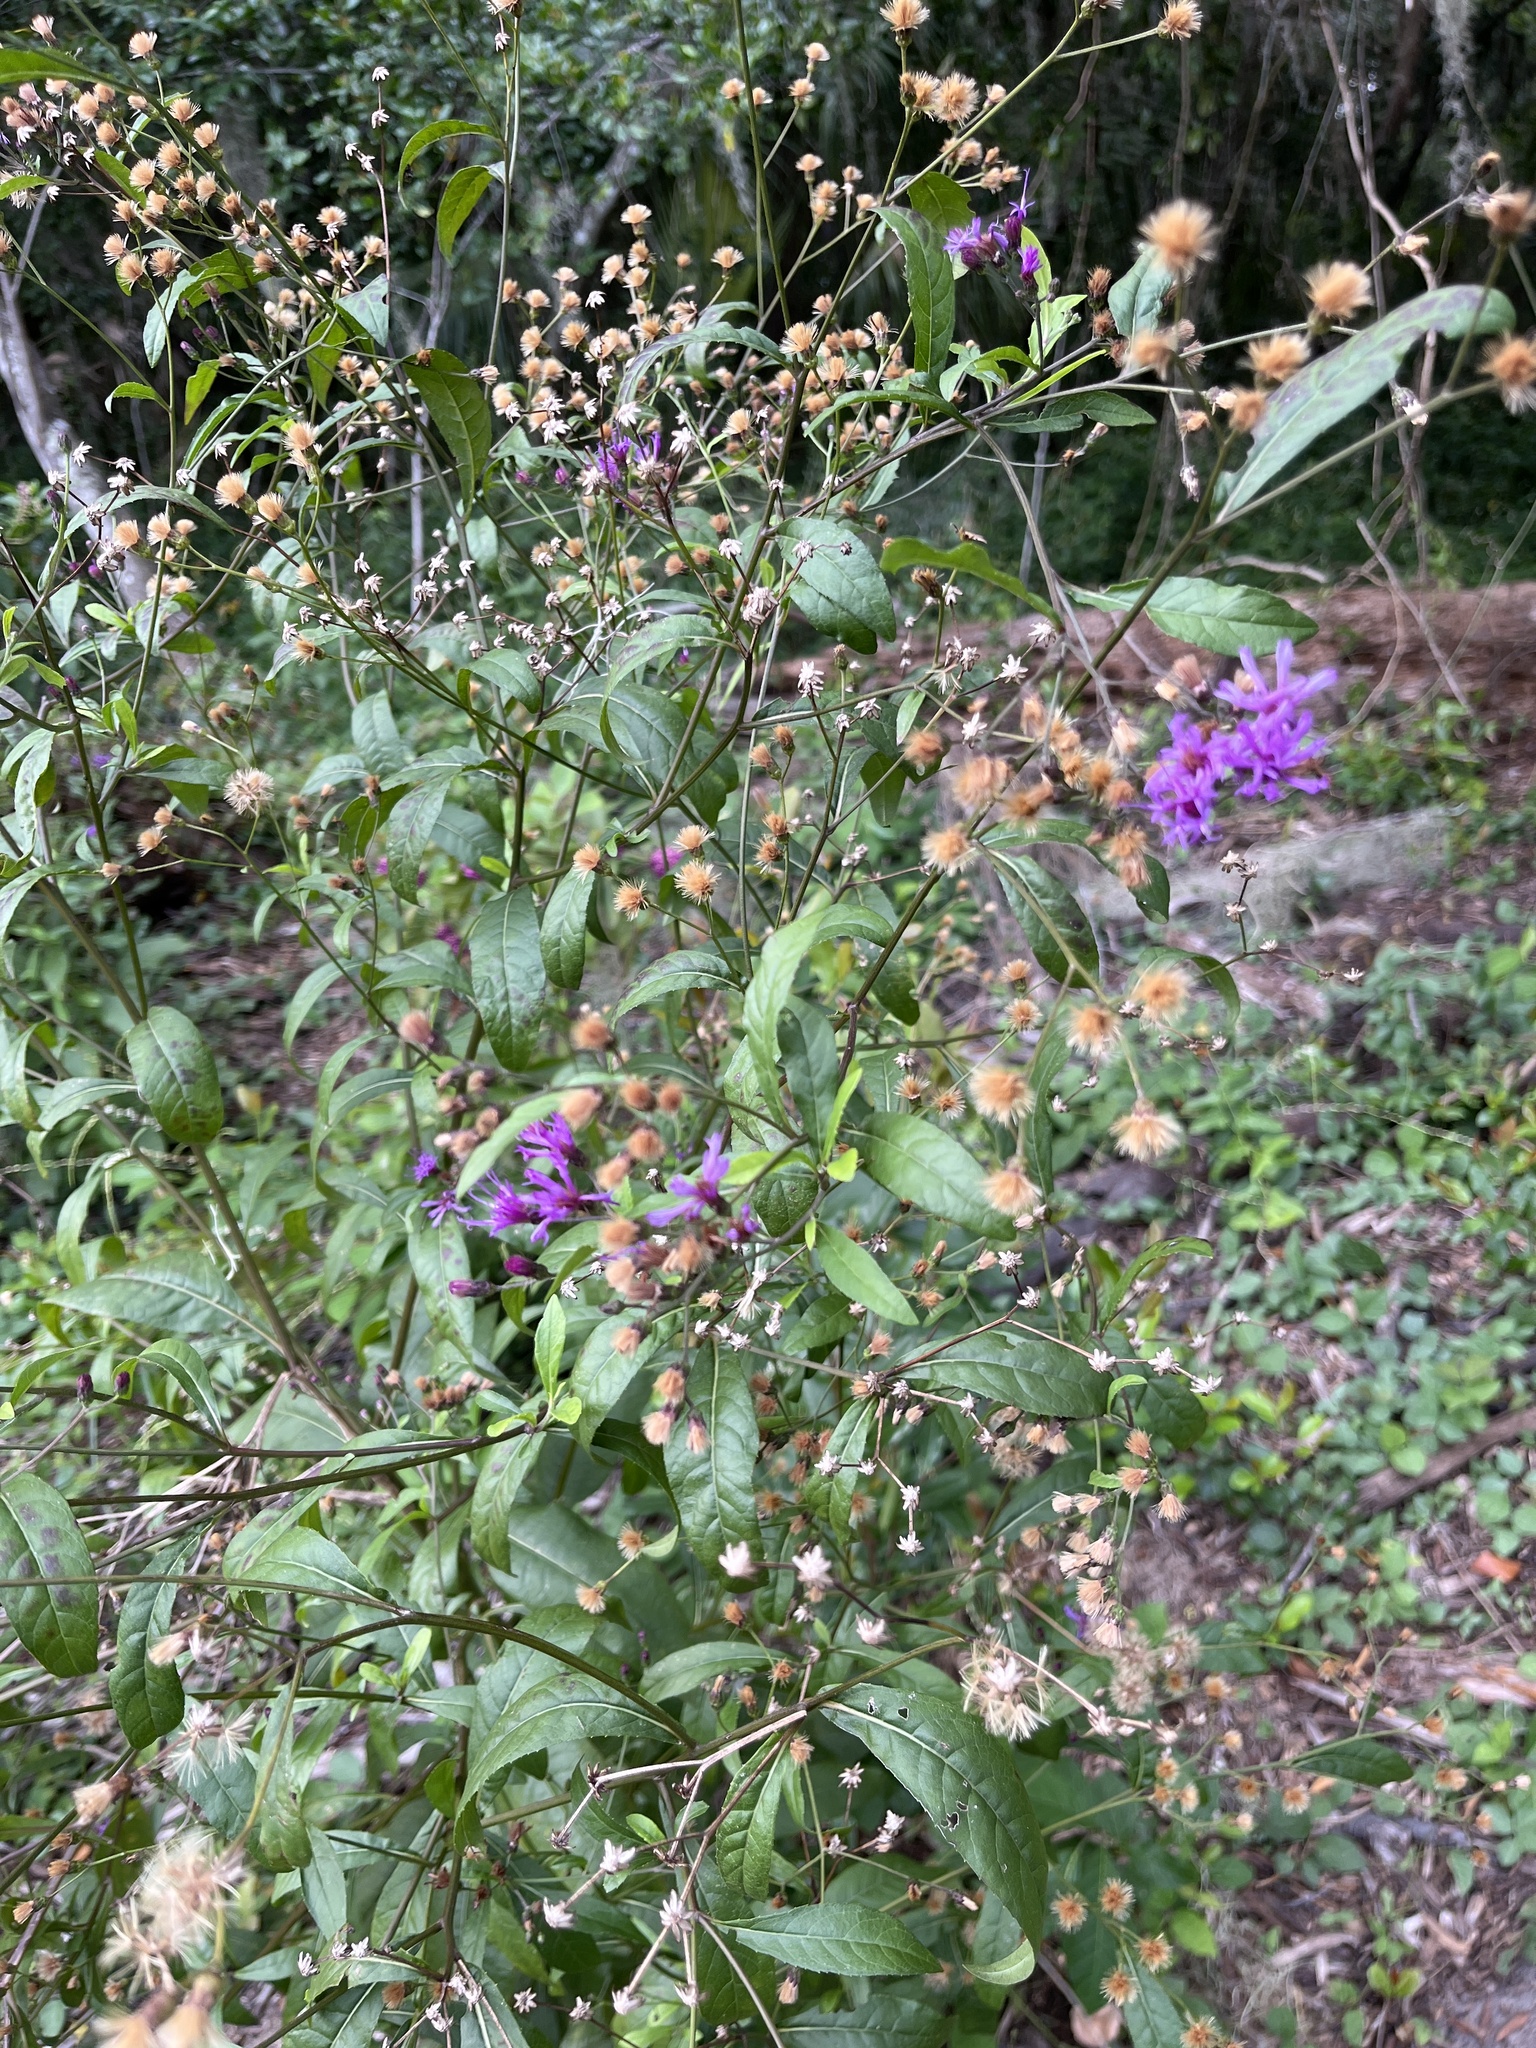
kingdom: Plantae
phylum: Tracheophyta
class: Magnoliopsida
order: Asterales
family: Asteraceae
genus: Vernonia
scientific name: Vernonia gigantea
